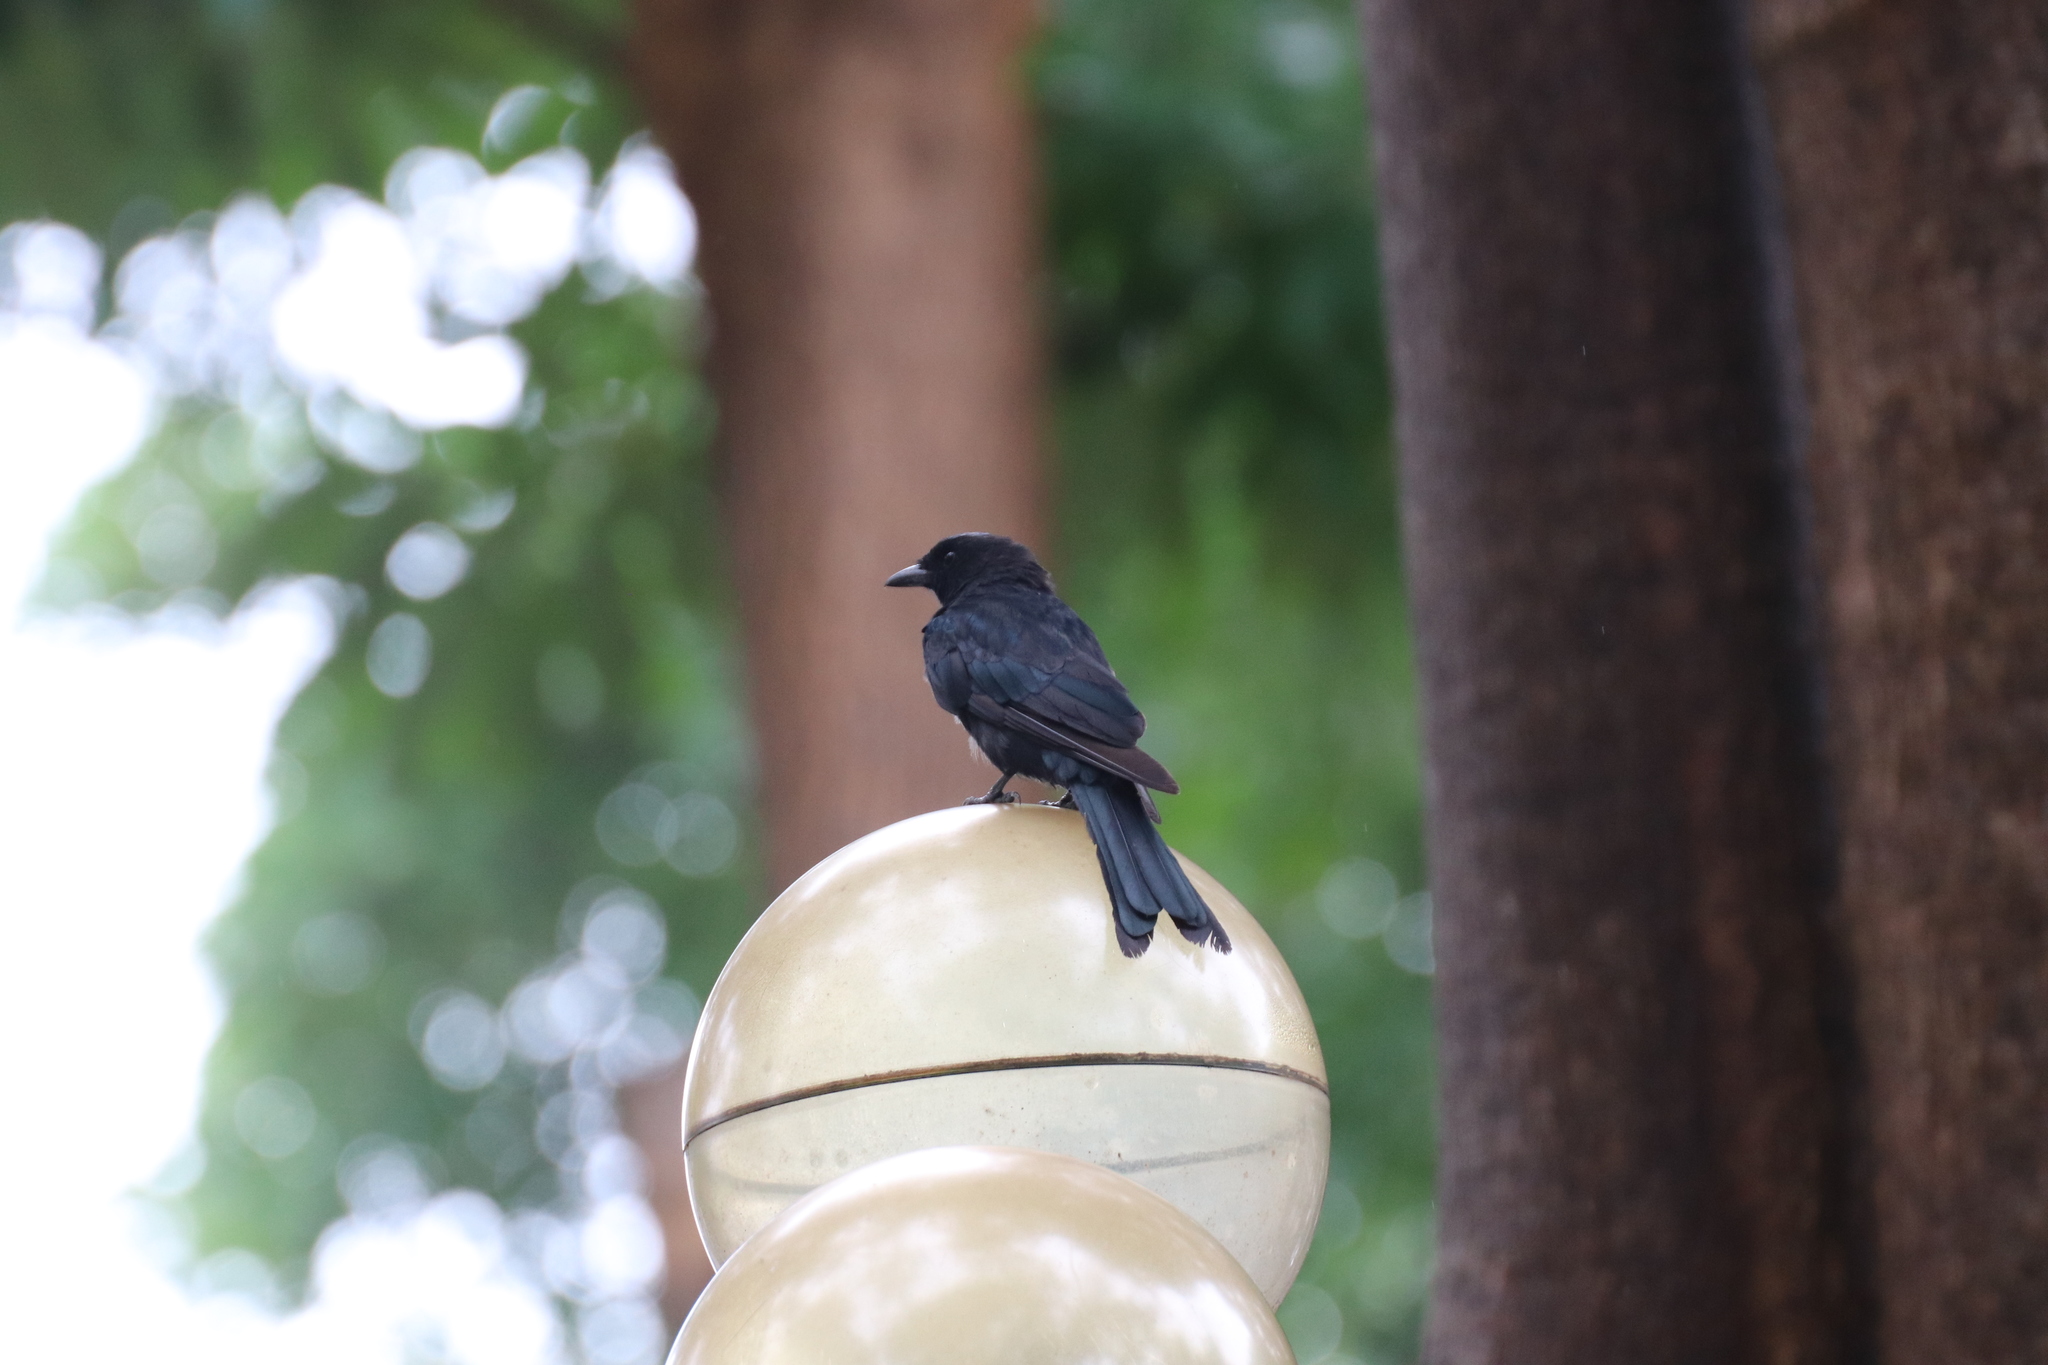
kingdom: Animalia
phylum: Chordata
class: Aves
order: Passeriformes
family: Dicruridae
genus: Dicrurus
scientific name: Dicrurus macrocercus
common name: Black drongo
